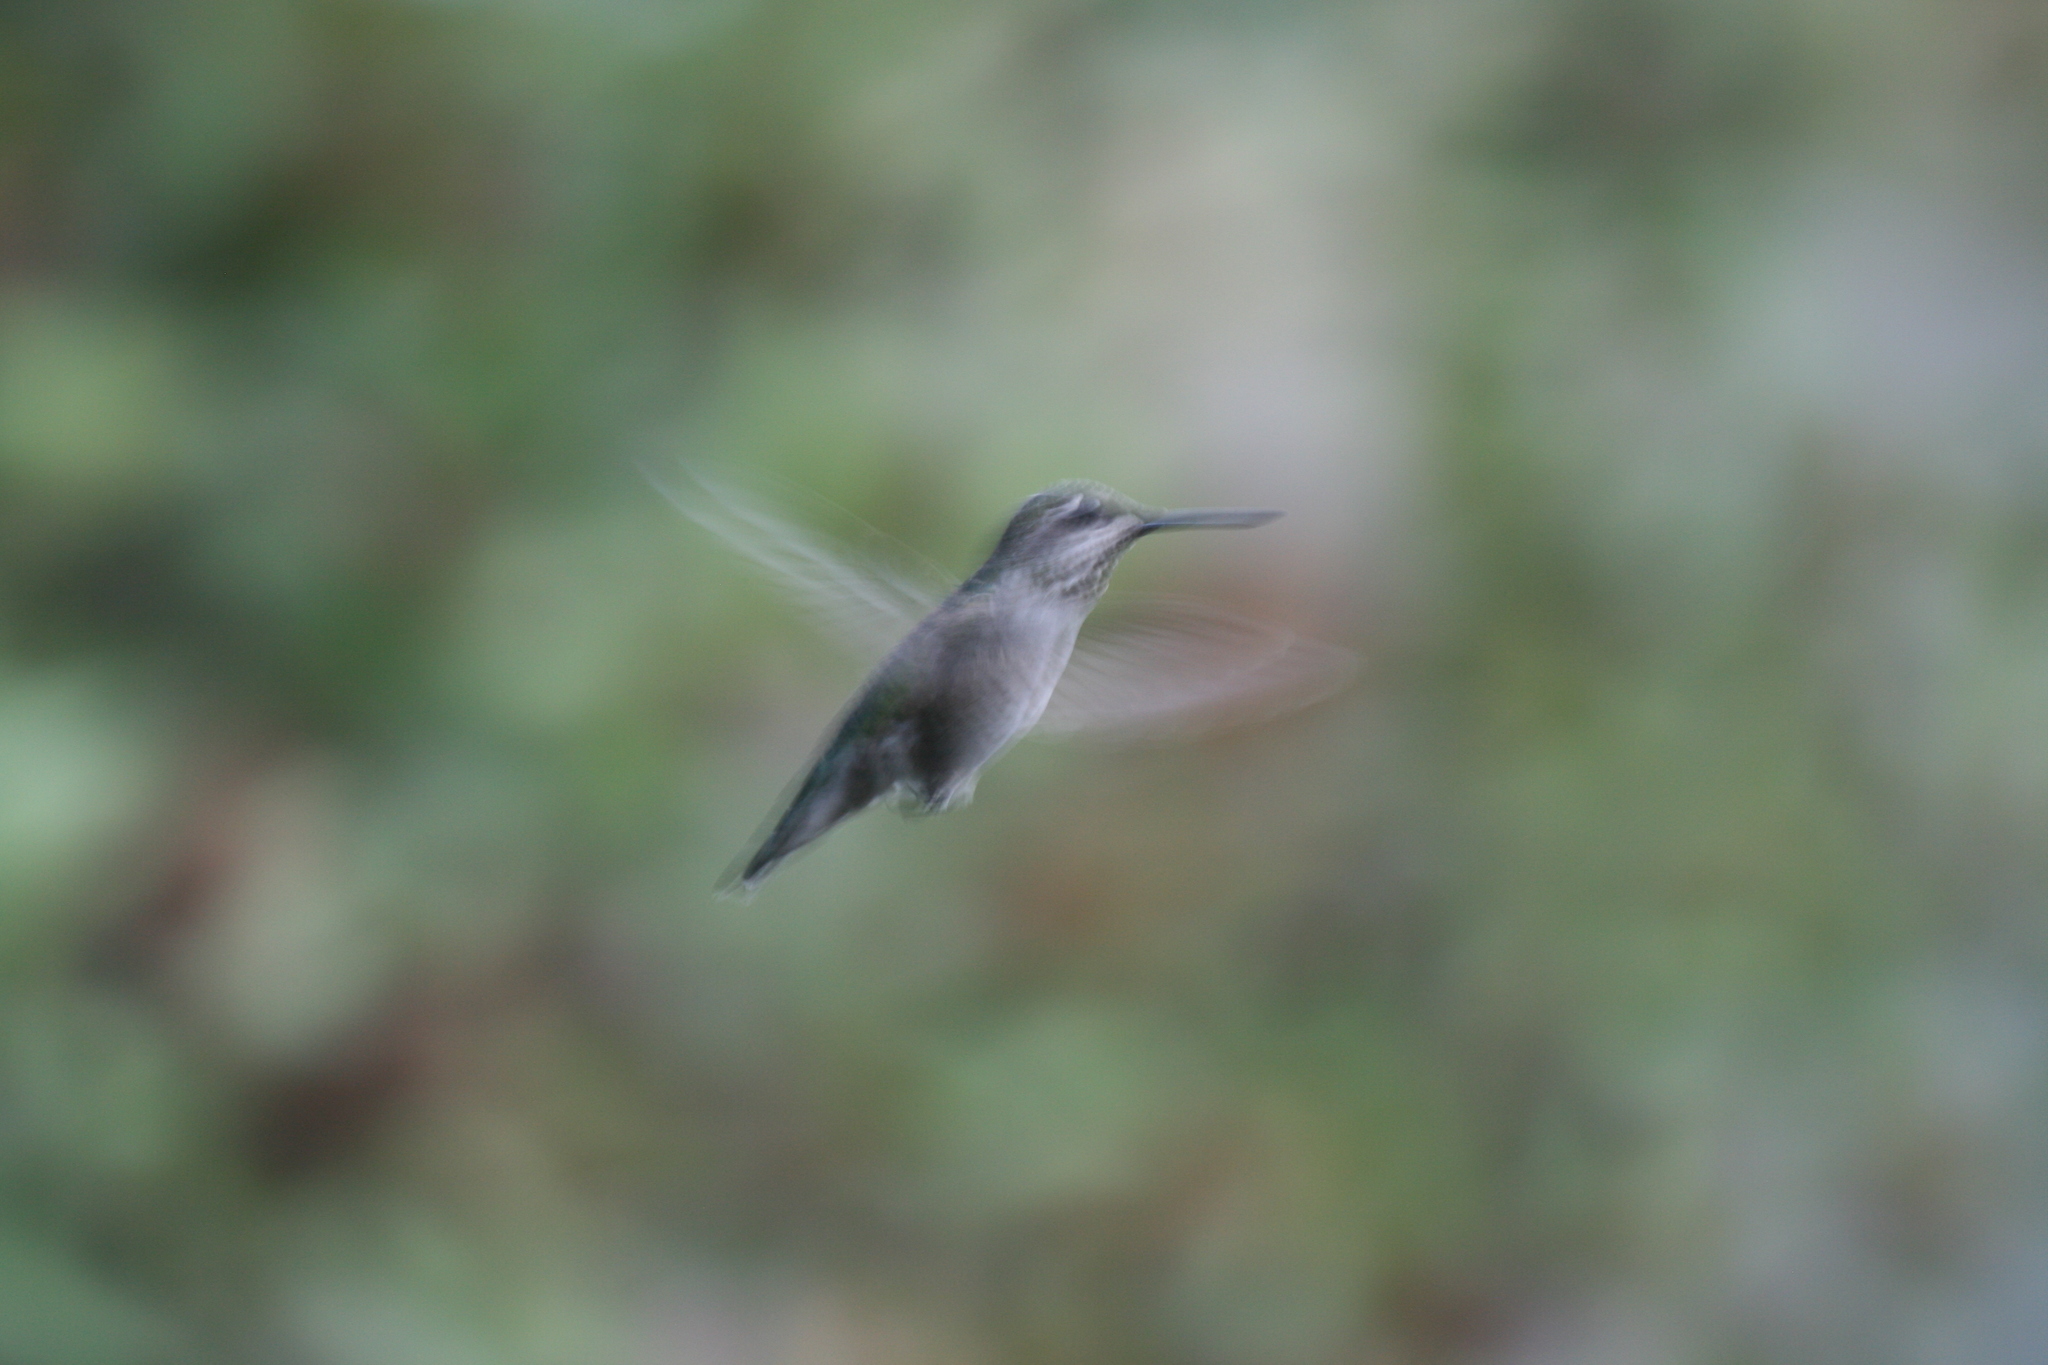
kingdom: Animalia
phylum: Chordata
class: Aves
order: Apodiformes
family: Trochilidae
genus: Calypte
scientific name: Calypte anna
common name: Anna's hummingbird
